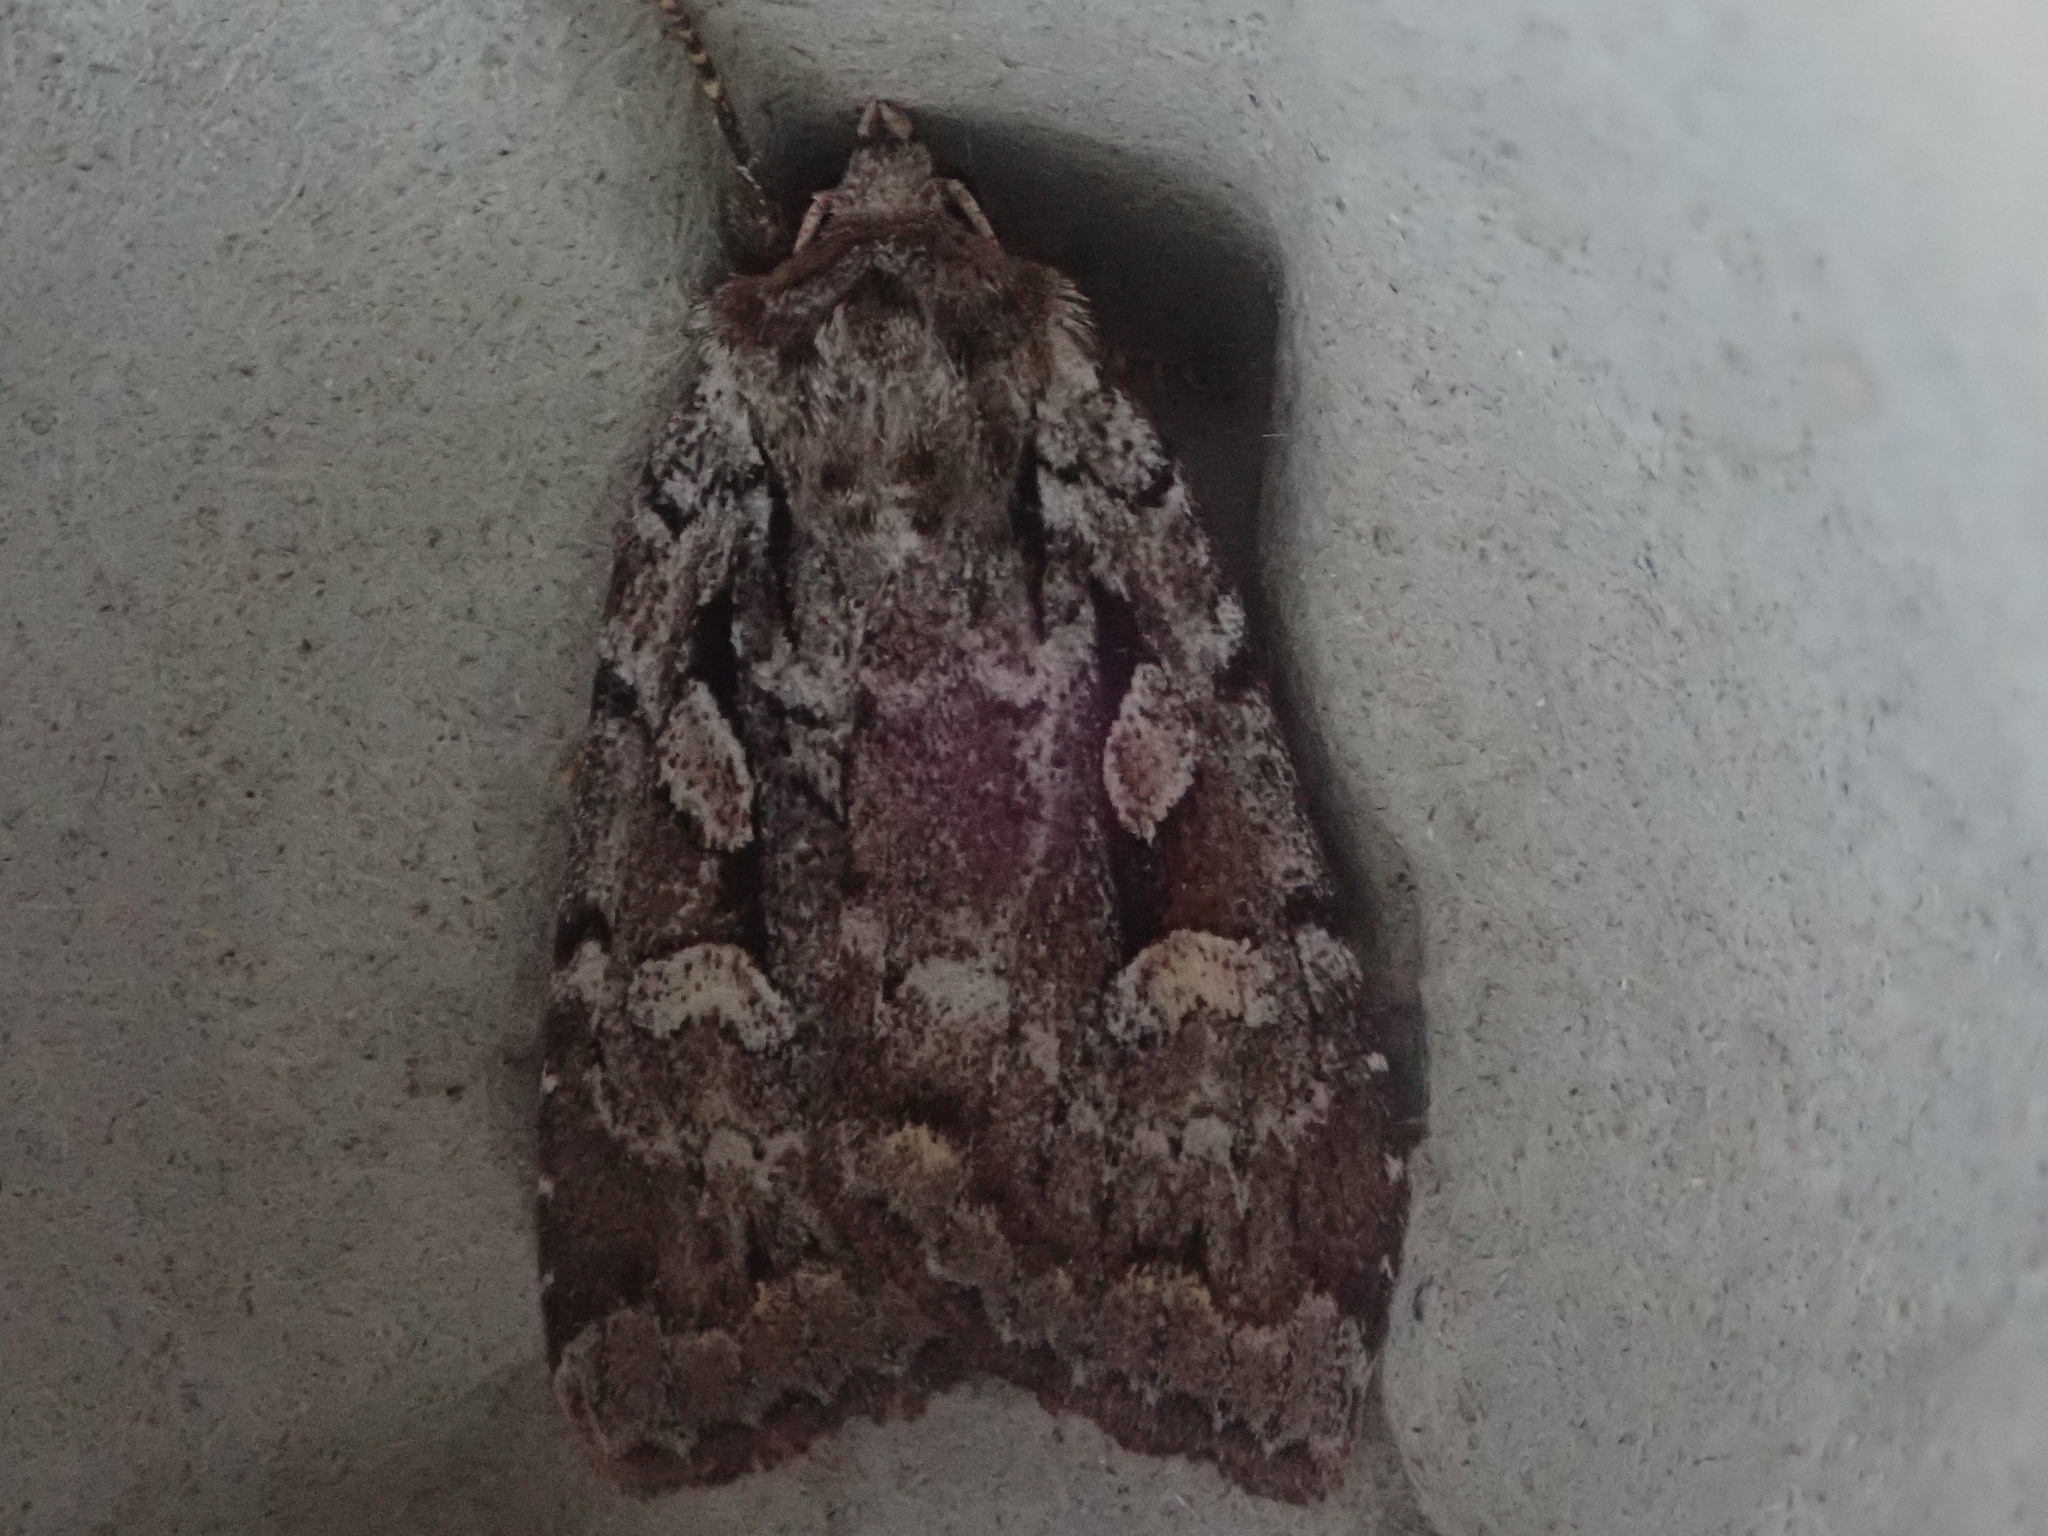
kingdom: Animalia
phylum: Arthropoda
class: Insecta
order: Lepidoptera
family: Noctuidae
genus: Xestia
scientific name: Xestia badicollis
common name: Northern variable dart
